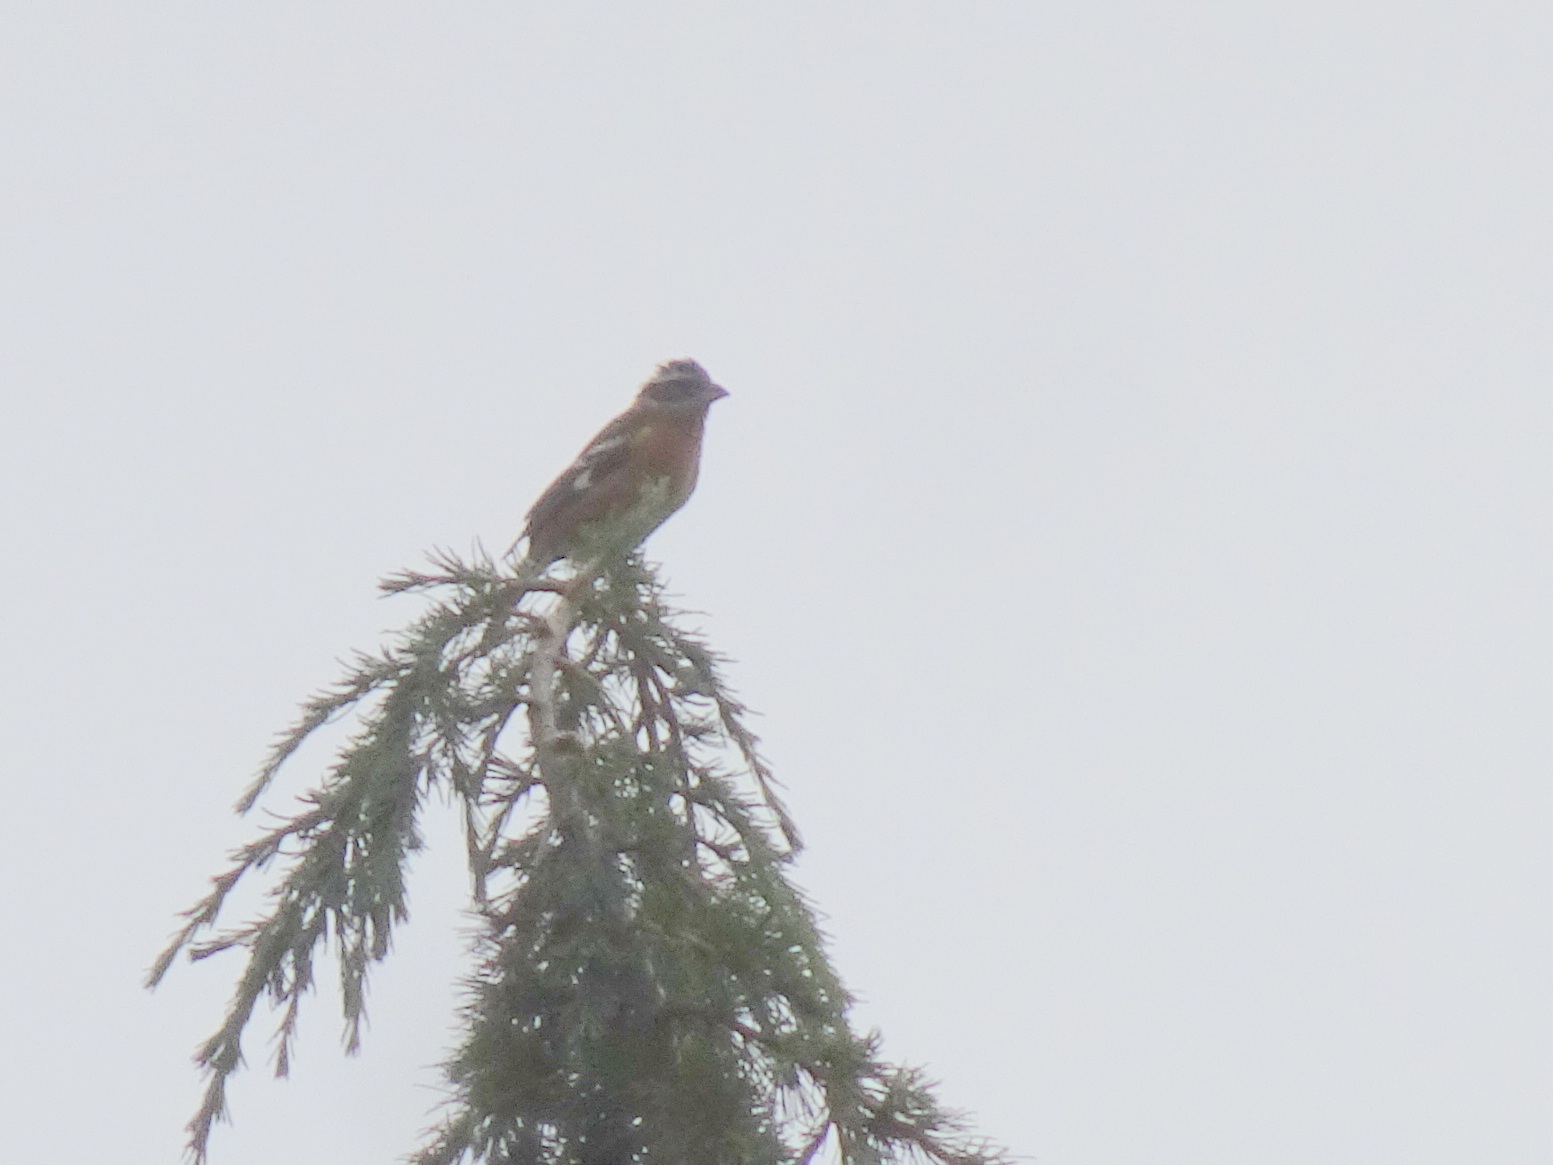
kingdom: Animalia
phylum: Chordata
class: Aves
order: Passeriformes
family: Cardinalidae
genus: Pheucticus
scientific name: Pheucticus melanocephalus
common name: Black-headed grosbeak
